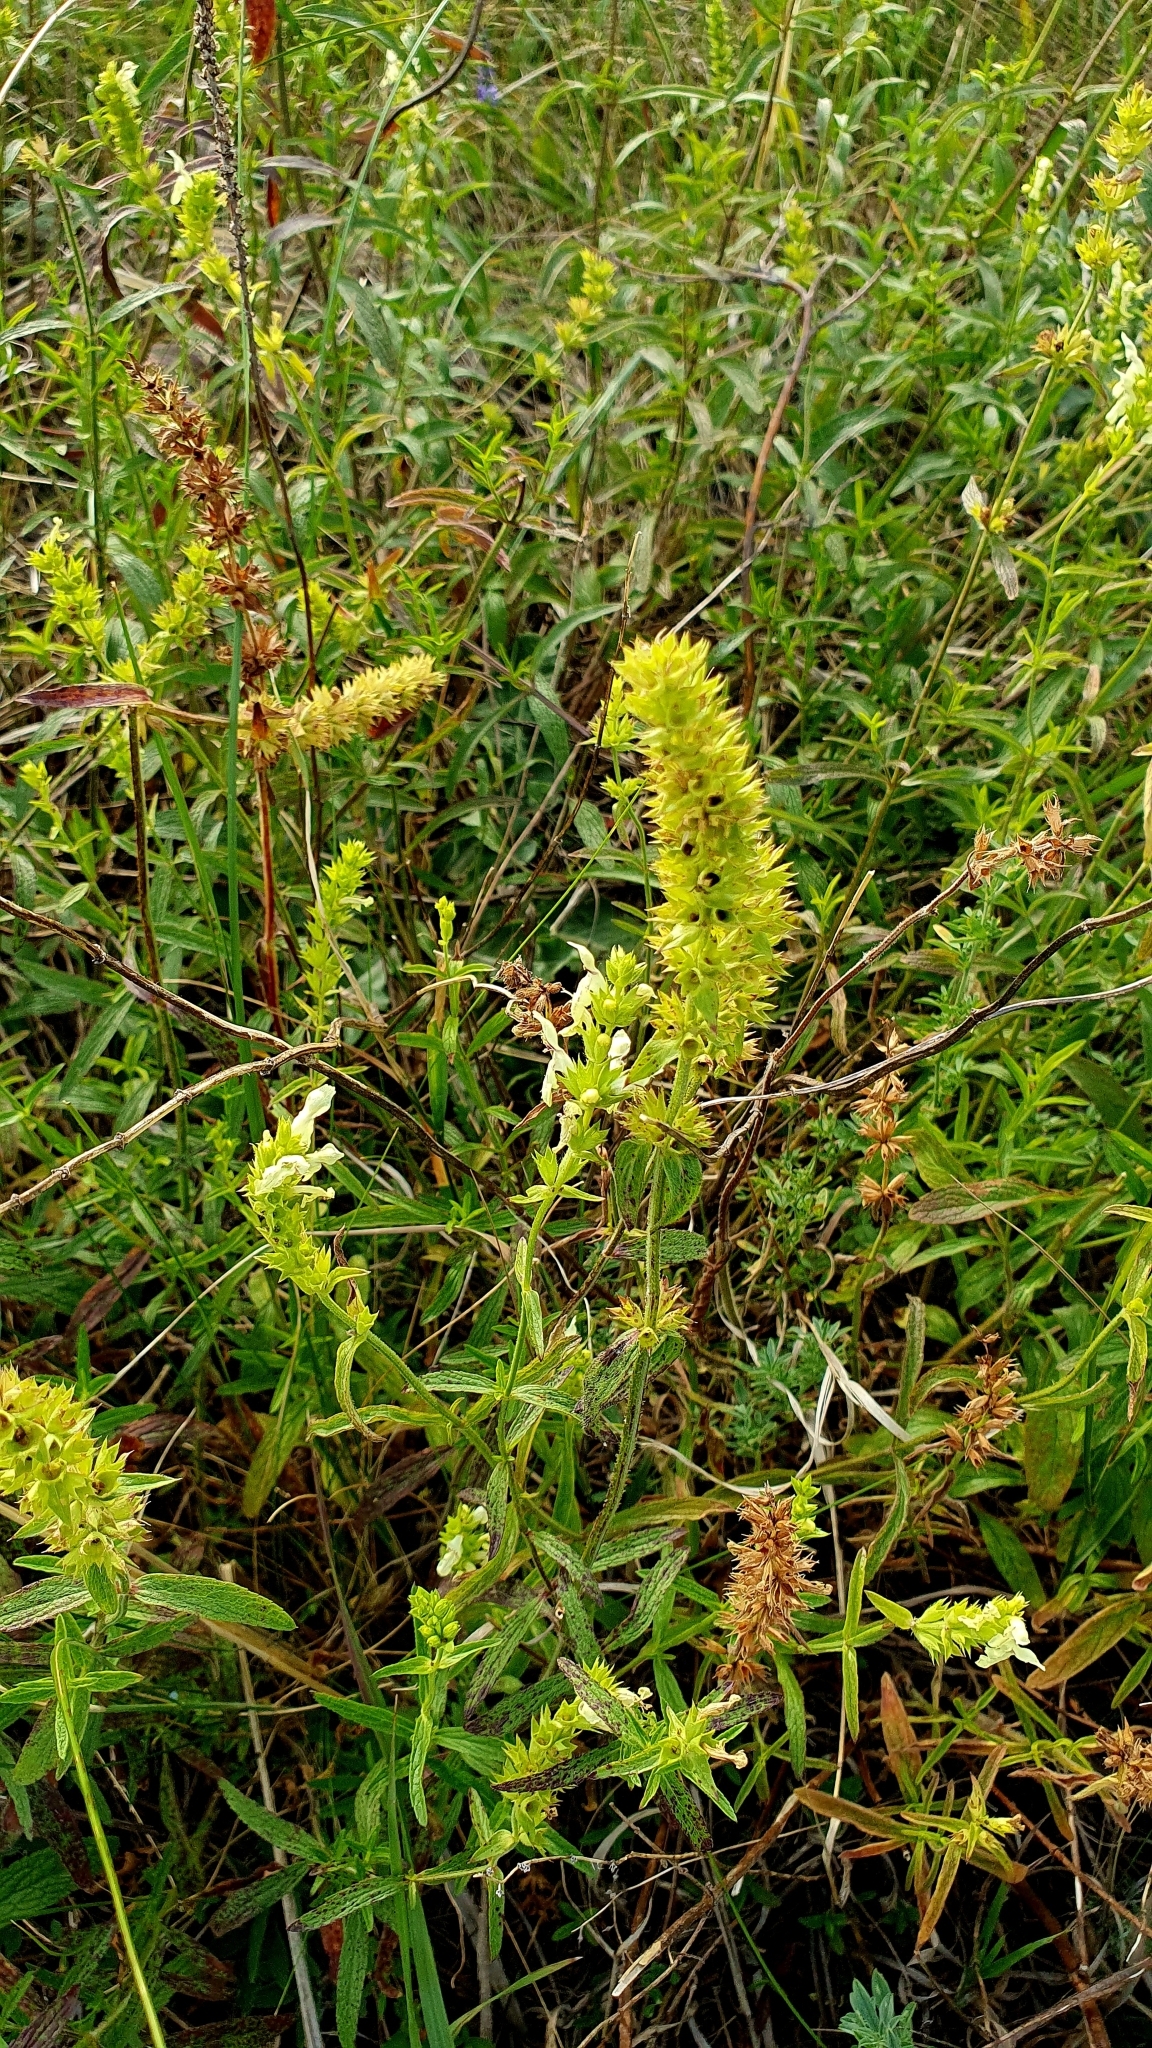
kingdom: Plantae
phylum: Tracheophyta
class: Magnoliopsida
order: Lamiales
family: Lamiaceae
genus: Stachys
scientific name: Stachys recta
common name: Perennial yellow-woundwort
